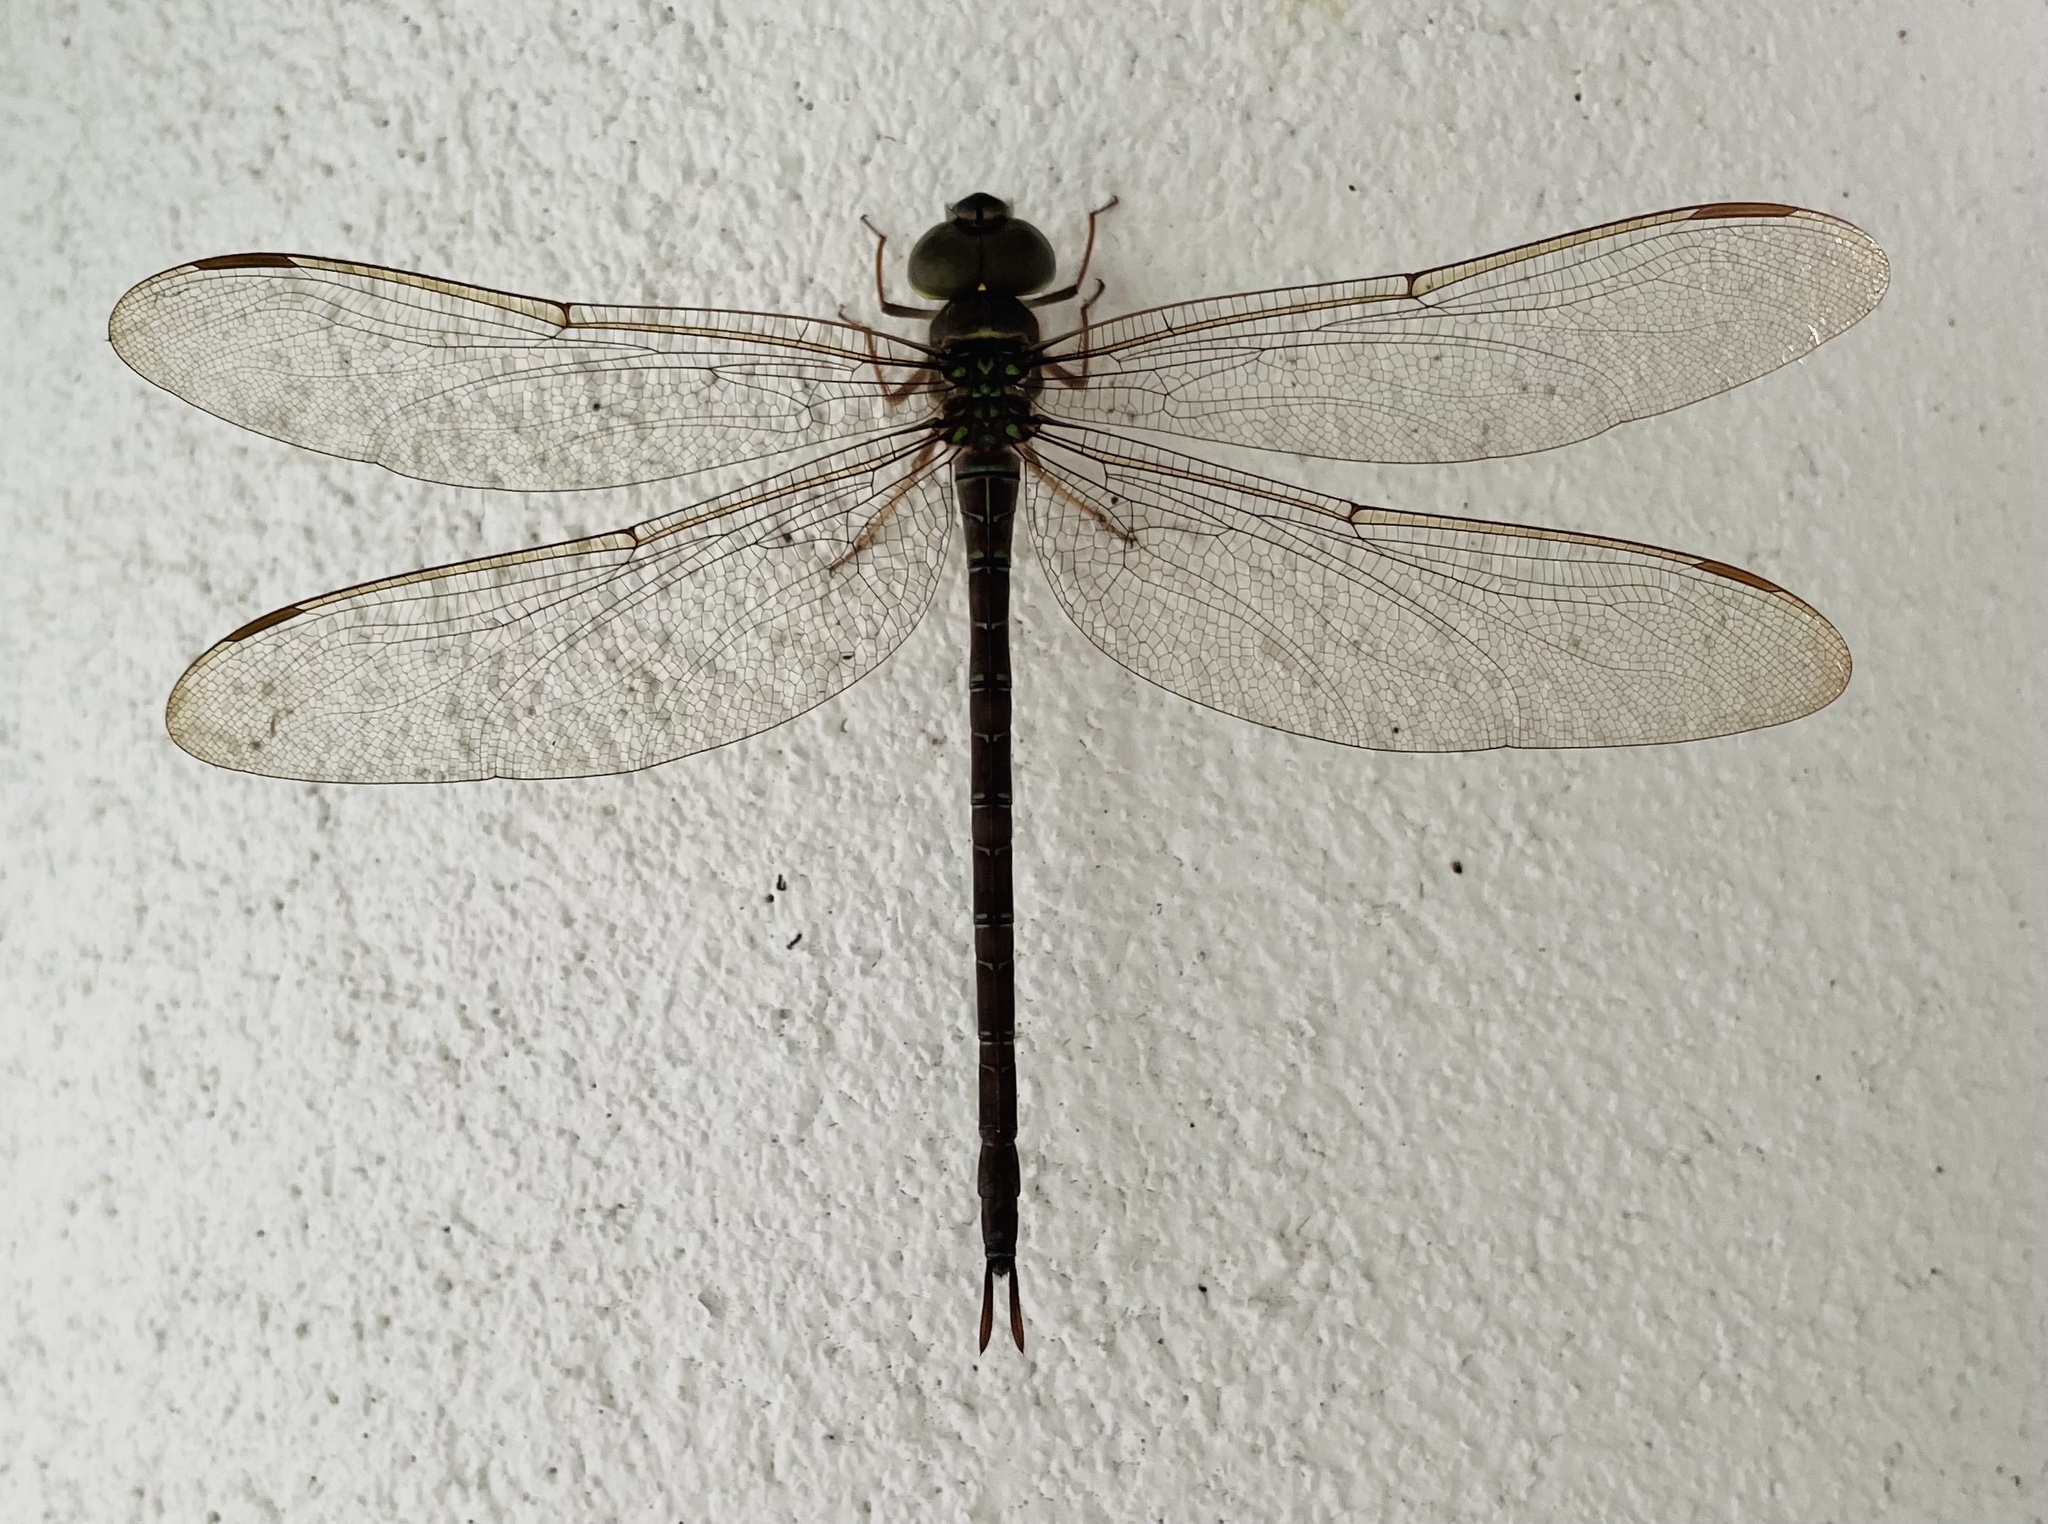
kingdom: Animalia
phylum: Arthropoda
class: Insecta
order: Odonata
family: Aeshnidae
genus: Gynacantha
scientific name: Gynacantha nervosa
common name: Twilight darner
